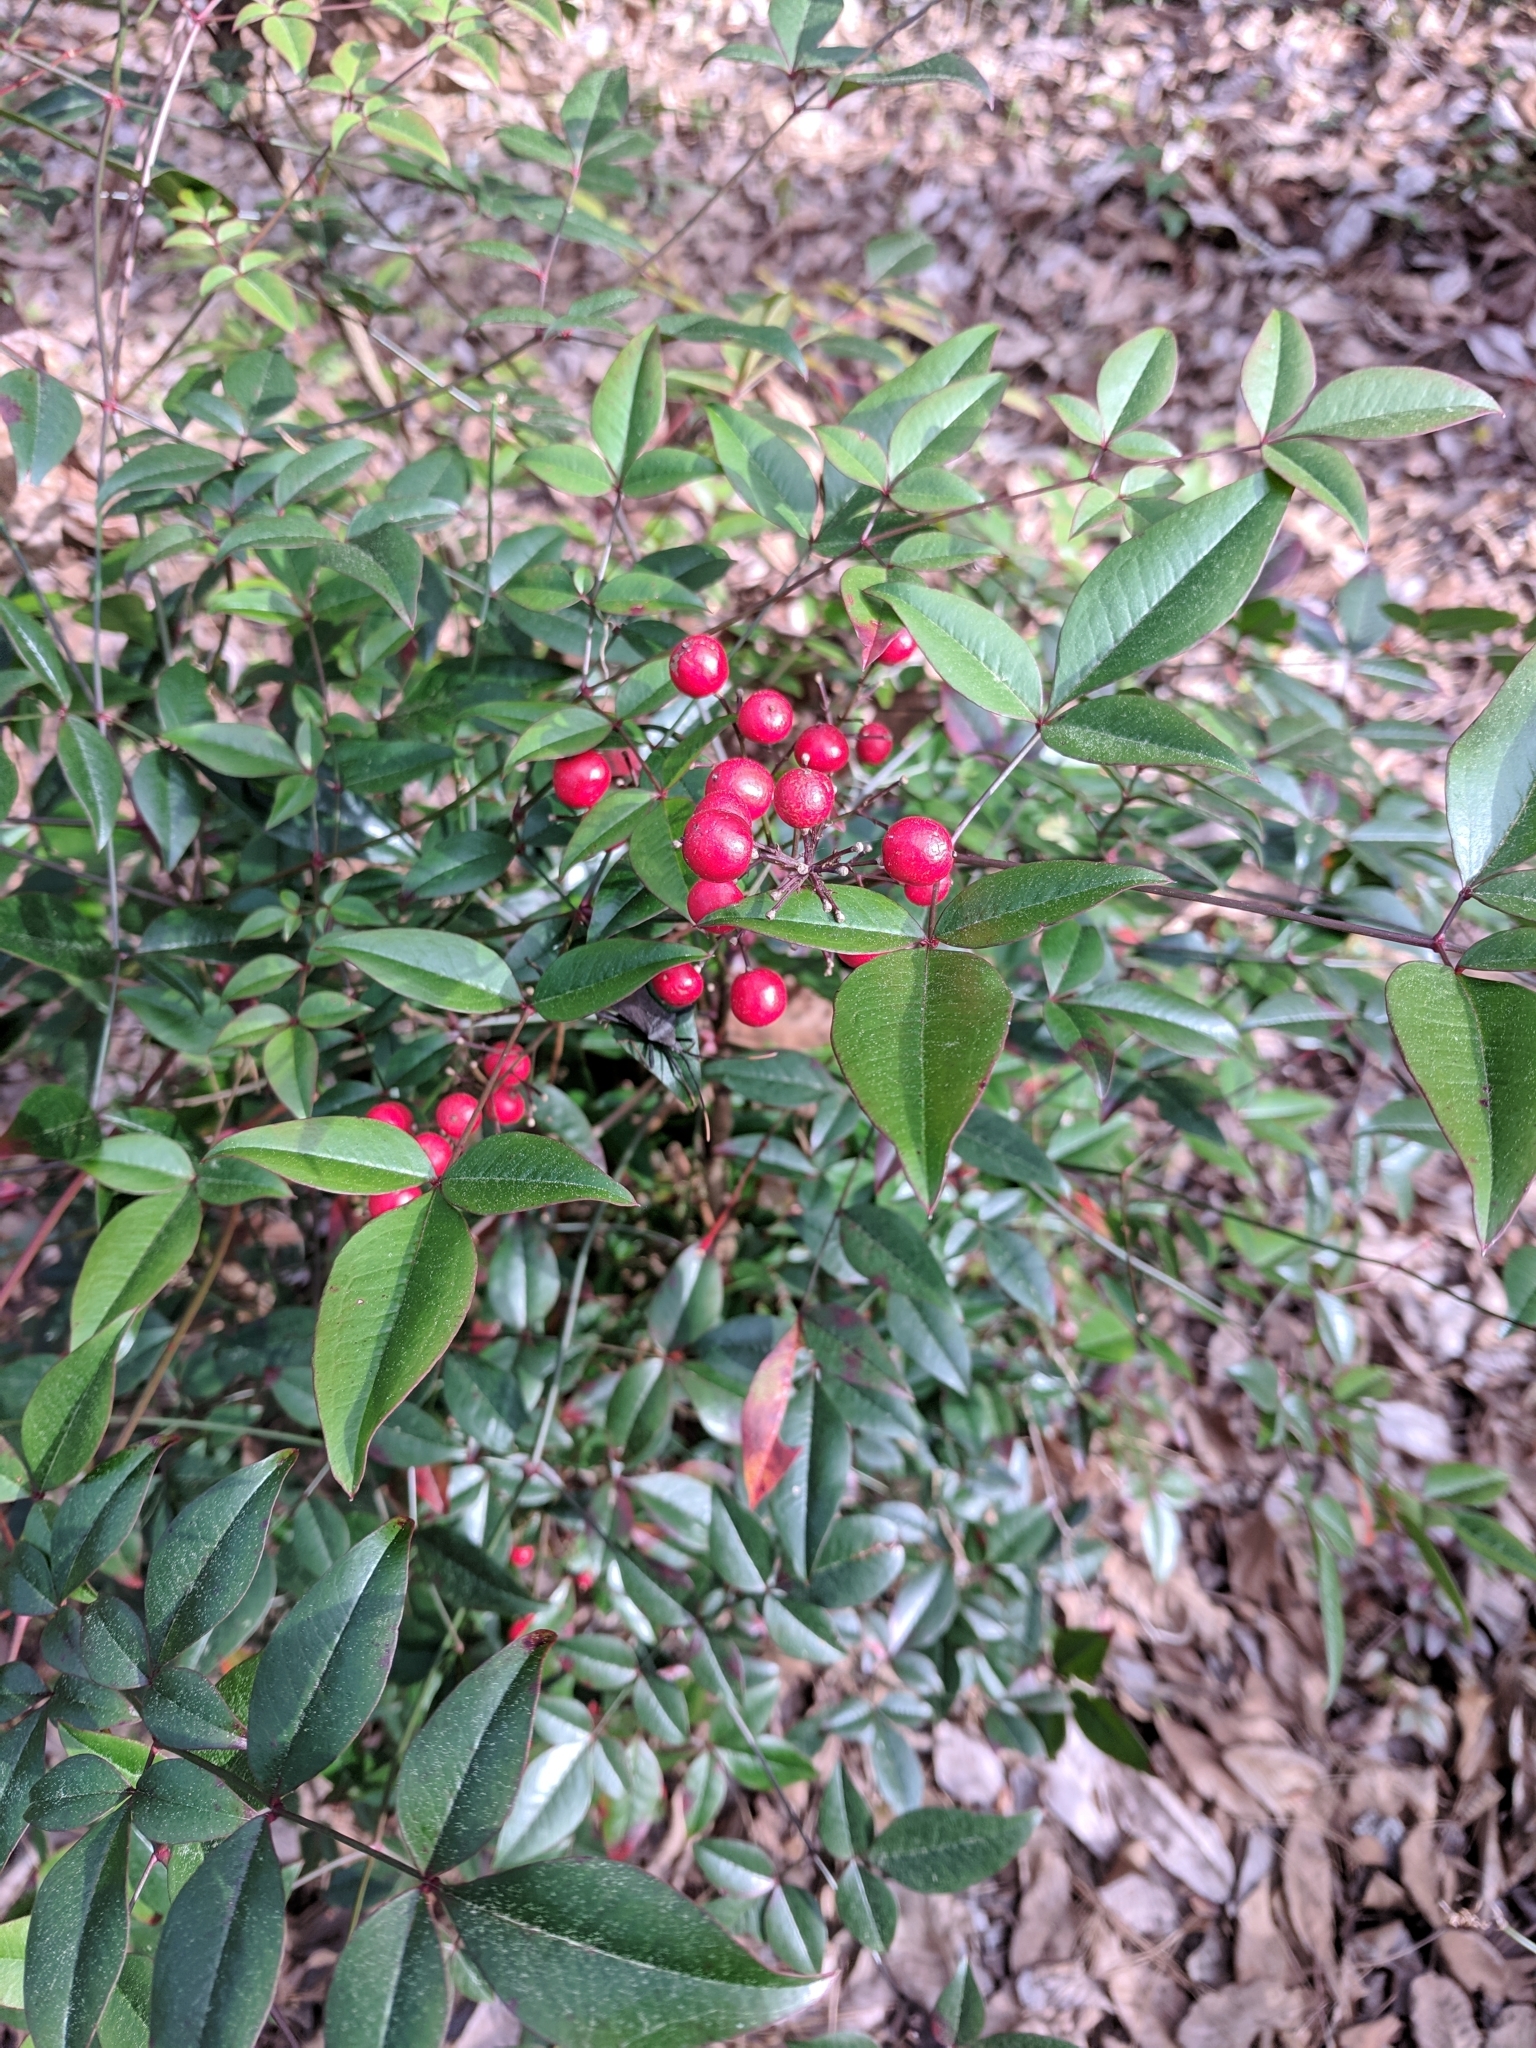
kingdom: Plantae
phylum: Tracheophyta
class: Magnoliopsida
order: Ranunculales
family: Berberidaceae
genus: Nandina
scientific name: Nandina domestica
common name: Sacred bamboo
